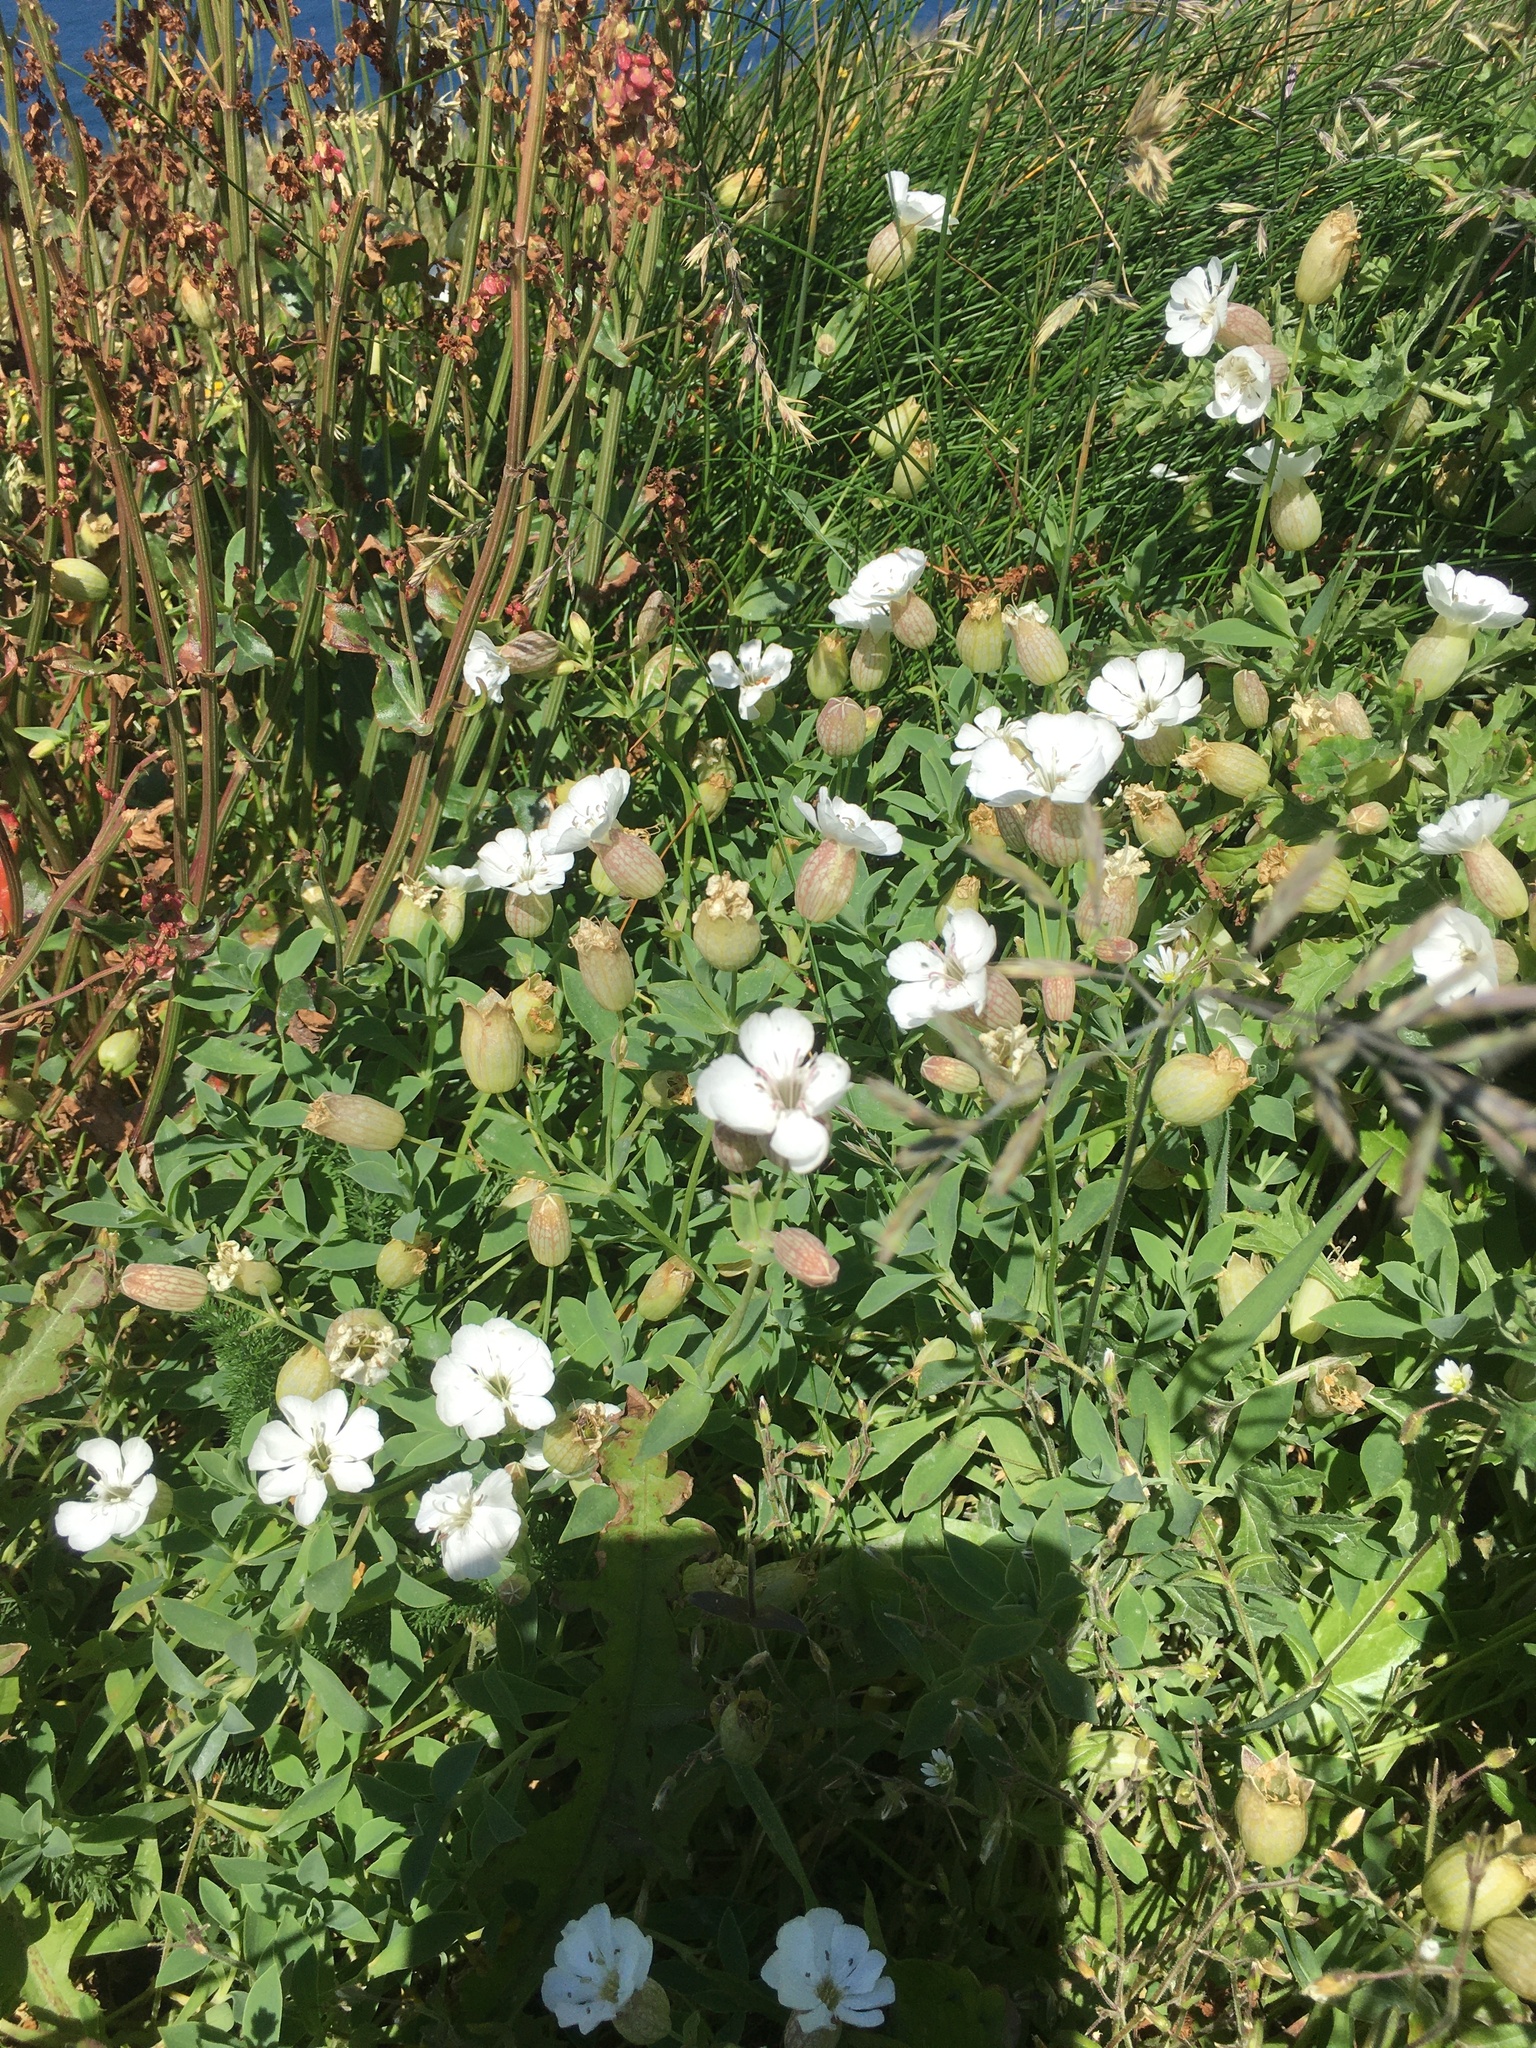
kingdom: Plantae
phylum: Tracheophyta
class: Magnoliopsida
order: Caryophyllales
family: Caryophyllaceae
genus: Silene
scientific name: Silene uniflora
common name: Sea campion
